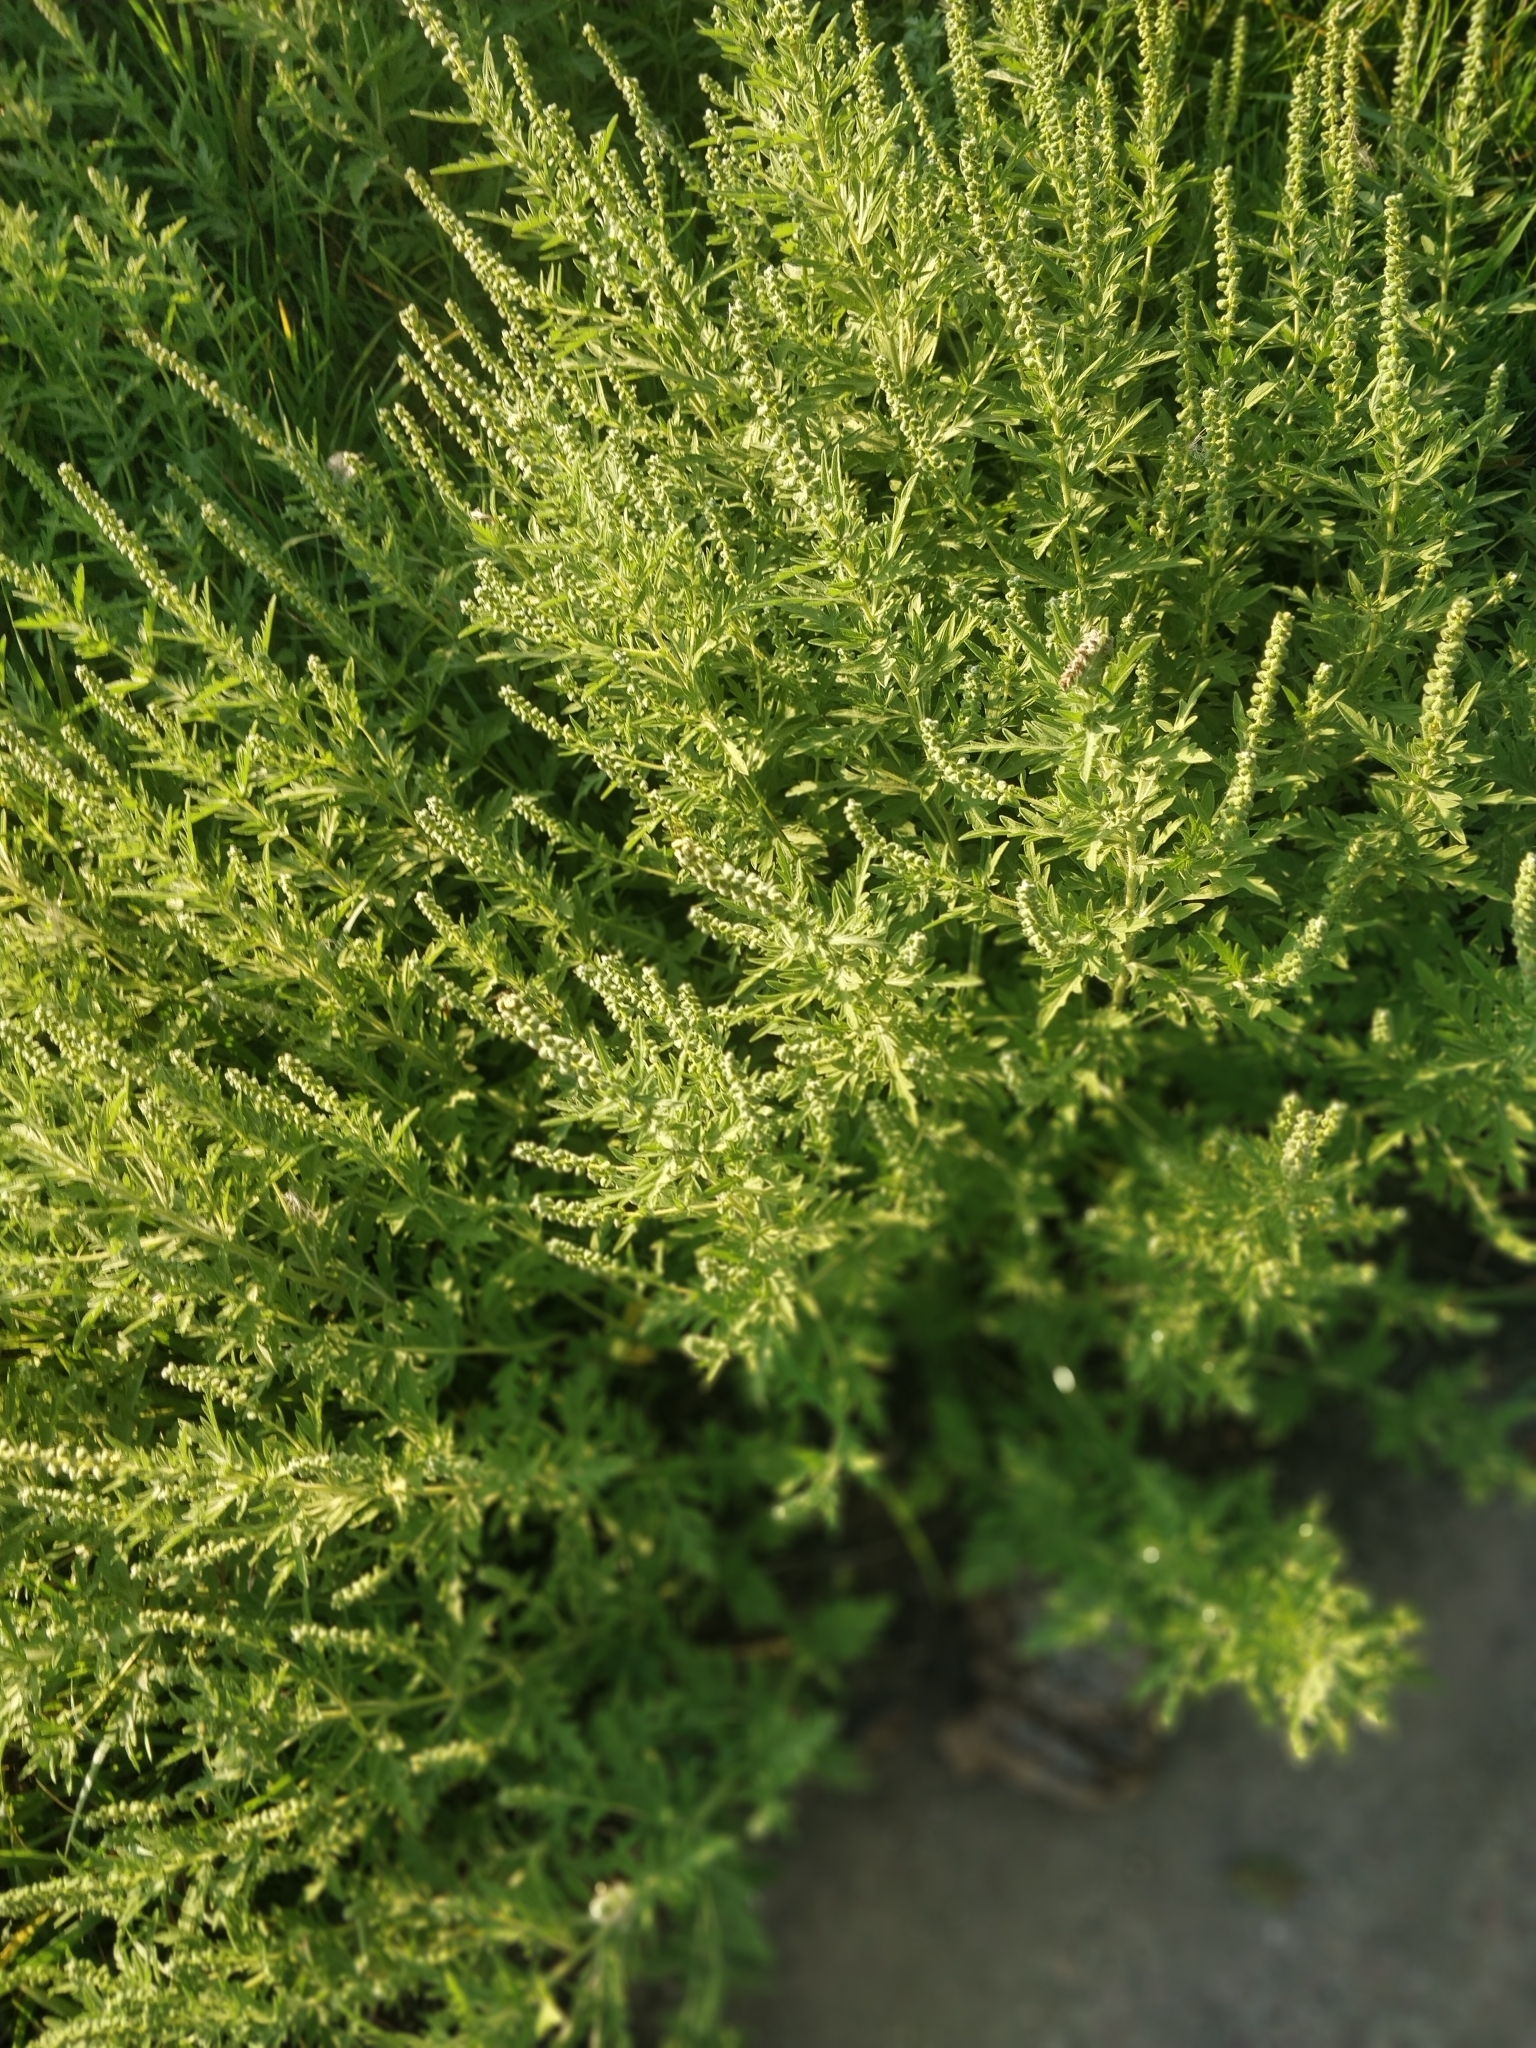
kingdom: Plantae
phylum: Tracheophyta
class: Magnoliopsida
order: Asterales
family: Asteraceae
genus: Ambrosia
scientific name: Ambrosia psilostachya
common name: Perennial ragweed
